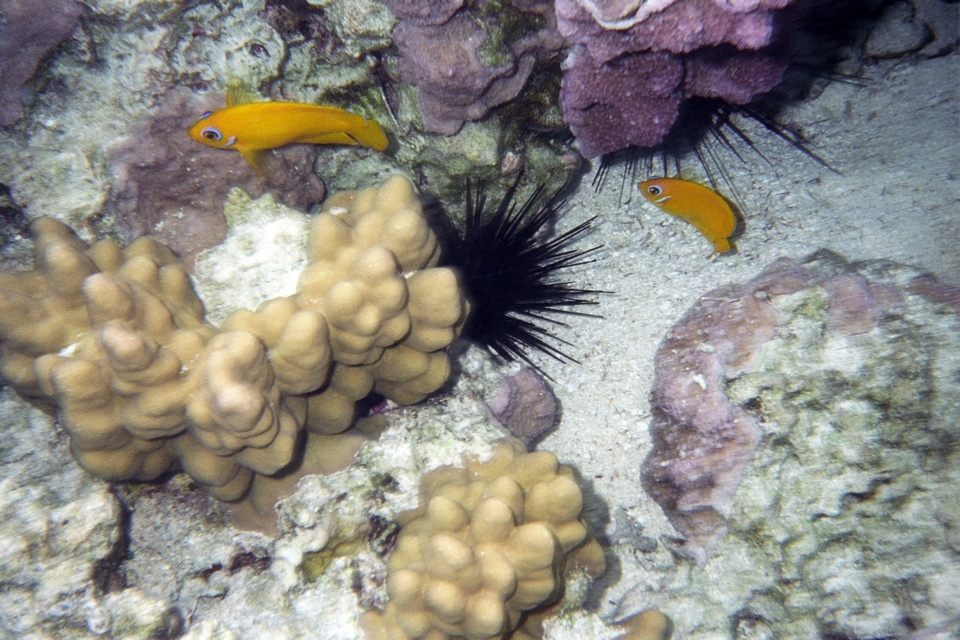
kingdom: Animalia
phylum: Chordata
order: Perciformes
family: Pomacanthidae
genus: Centropyge
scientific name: Centropyge flavissima
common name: Lemonpeel angelfish
